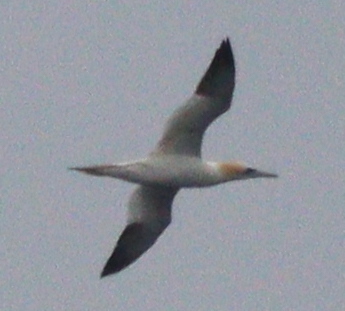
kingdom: Animalia
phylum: Chordata
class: Aves
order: Suliformes
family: Sulidae
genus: Morus
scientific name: Morus bassanus
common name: Northern gannet
